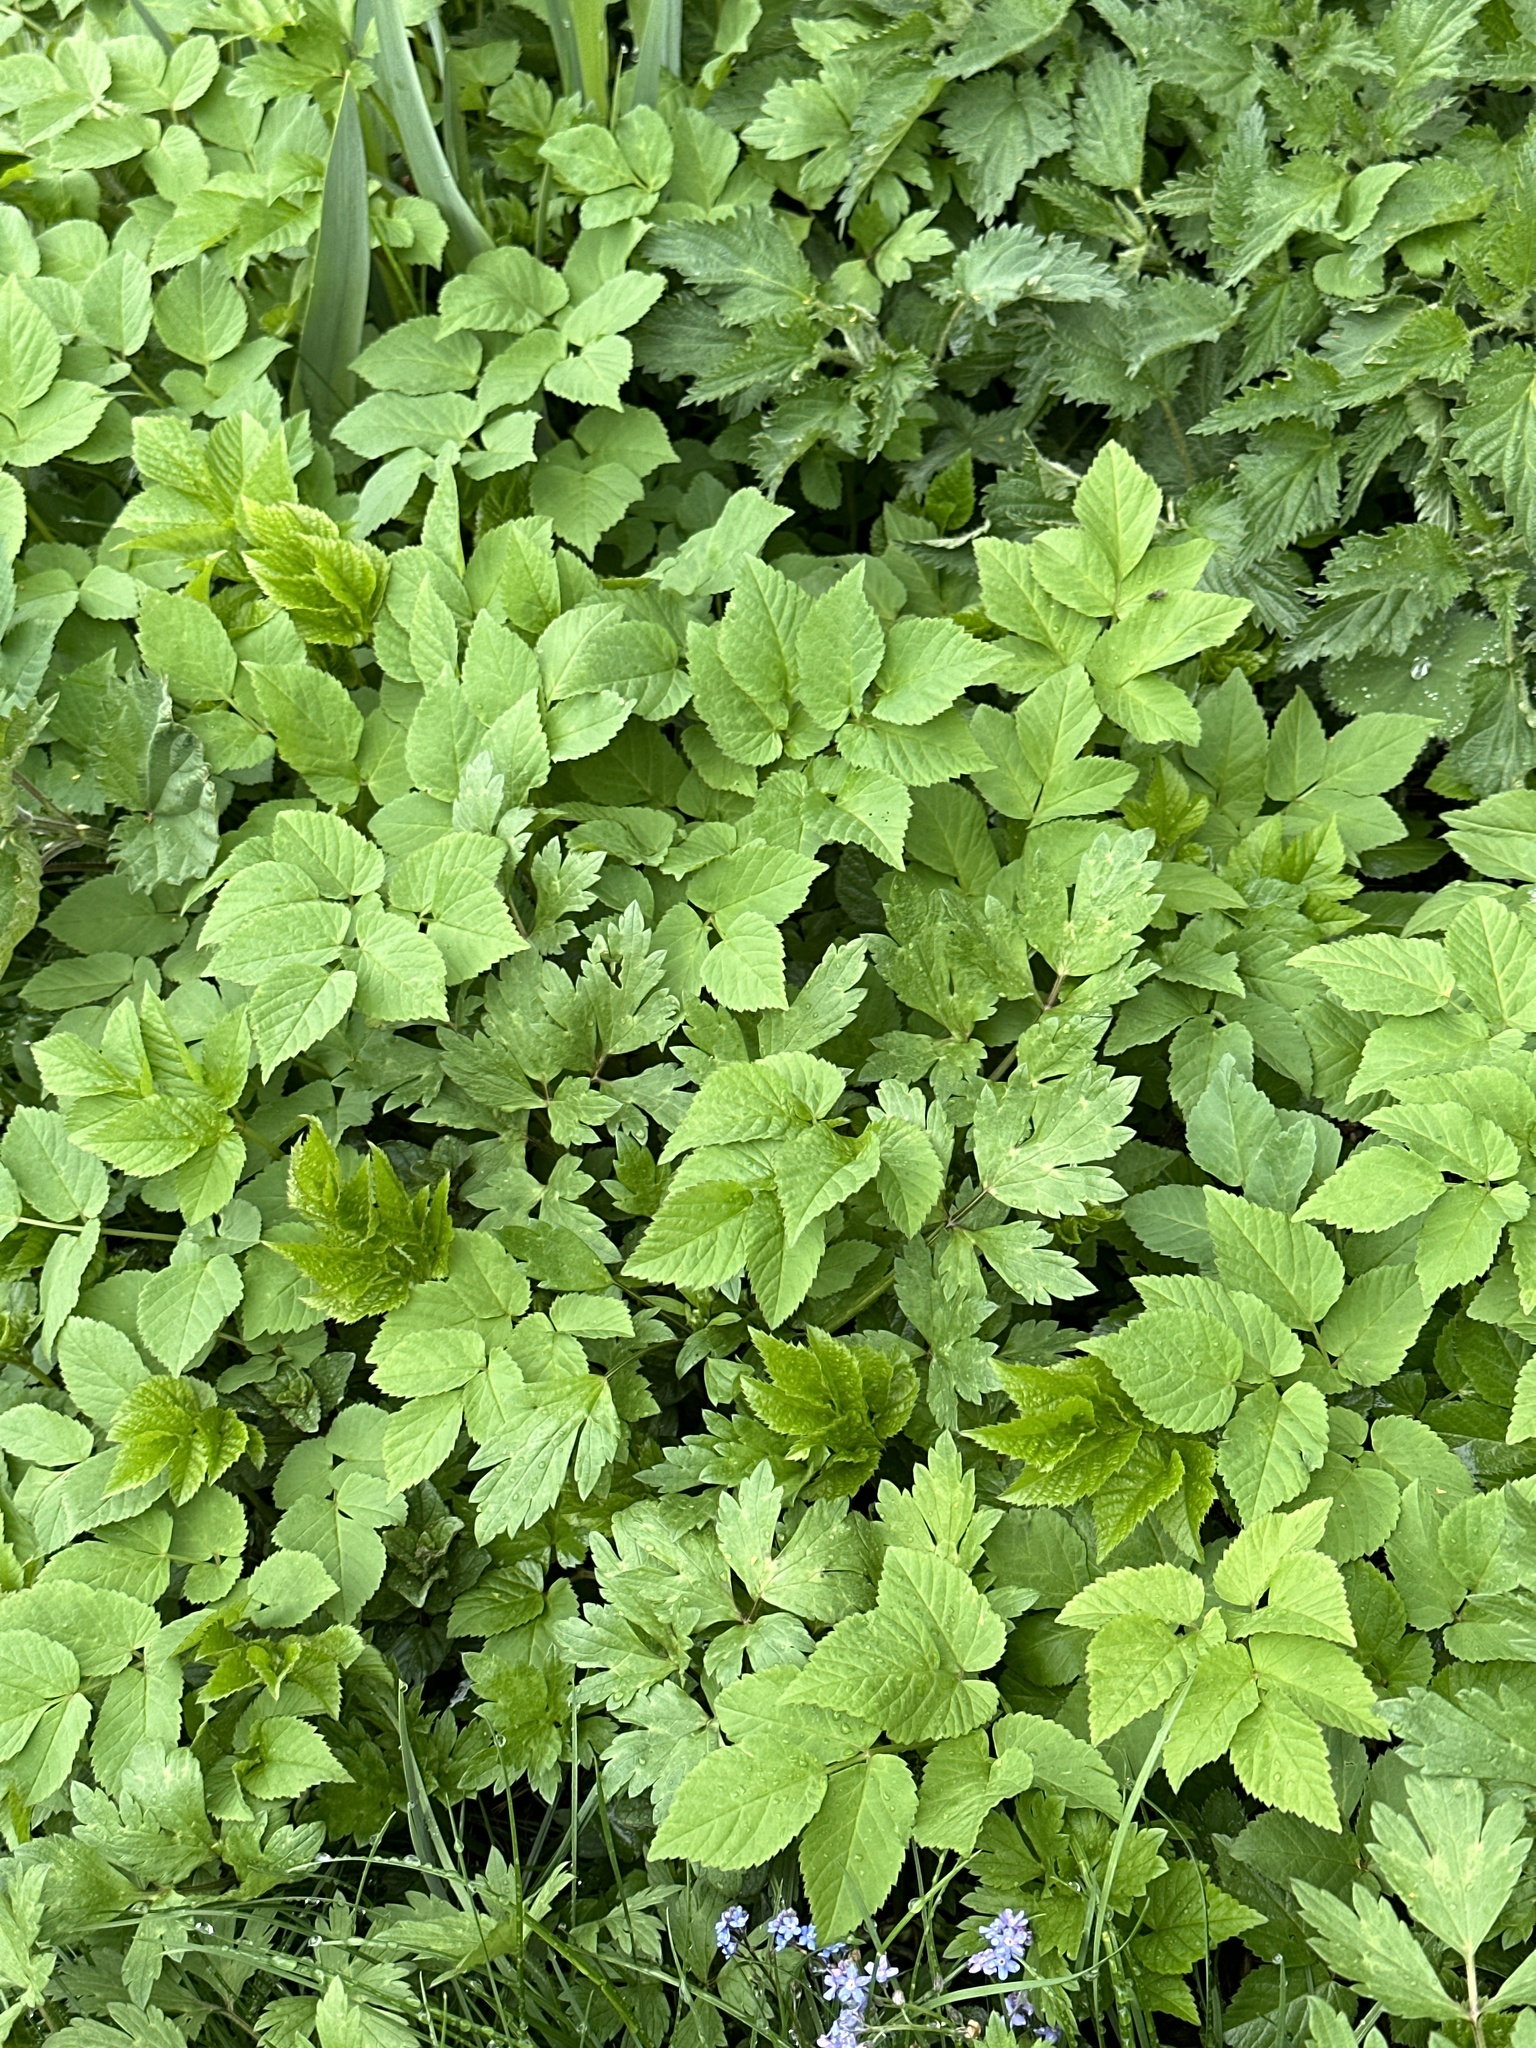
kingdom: Plantae
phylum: Tracheophyta
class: Magnoliopsida
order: Apiales
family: Apiaceae
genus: Aegopodium
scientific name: Aegopodium podagraria
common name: Ground-elder
